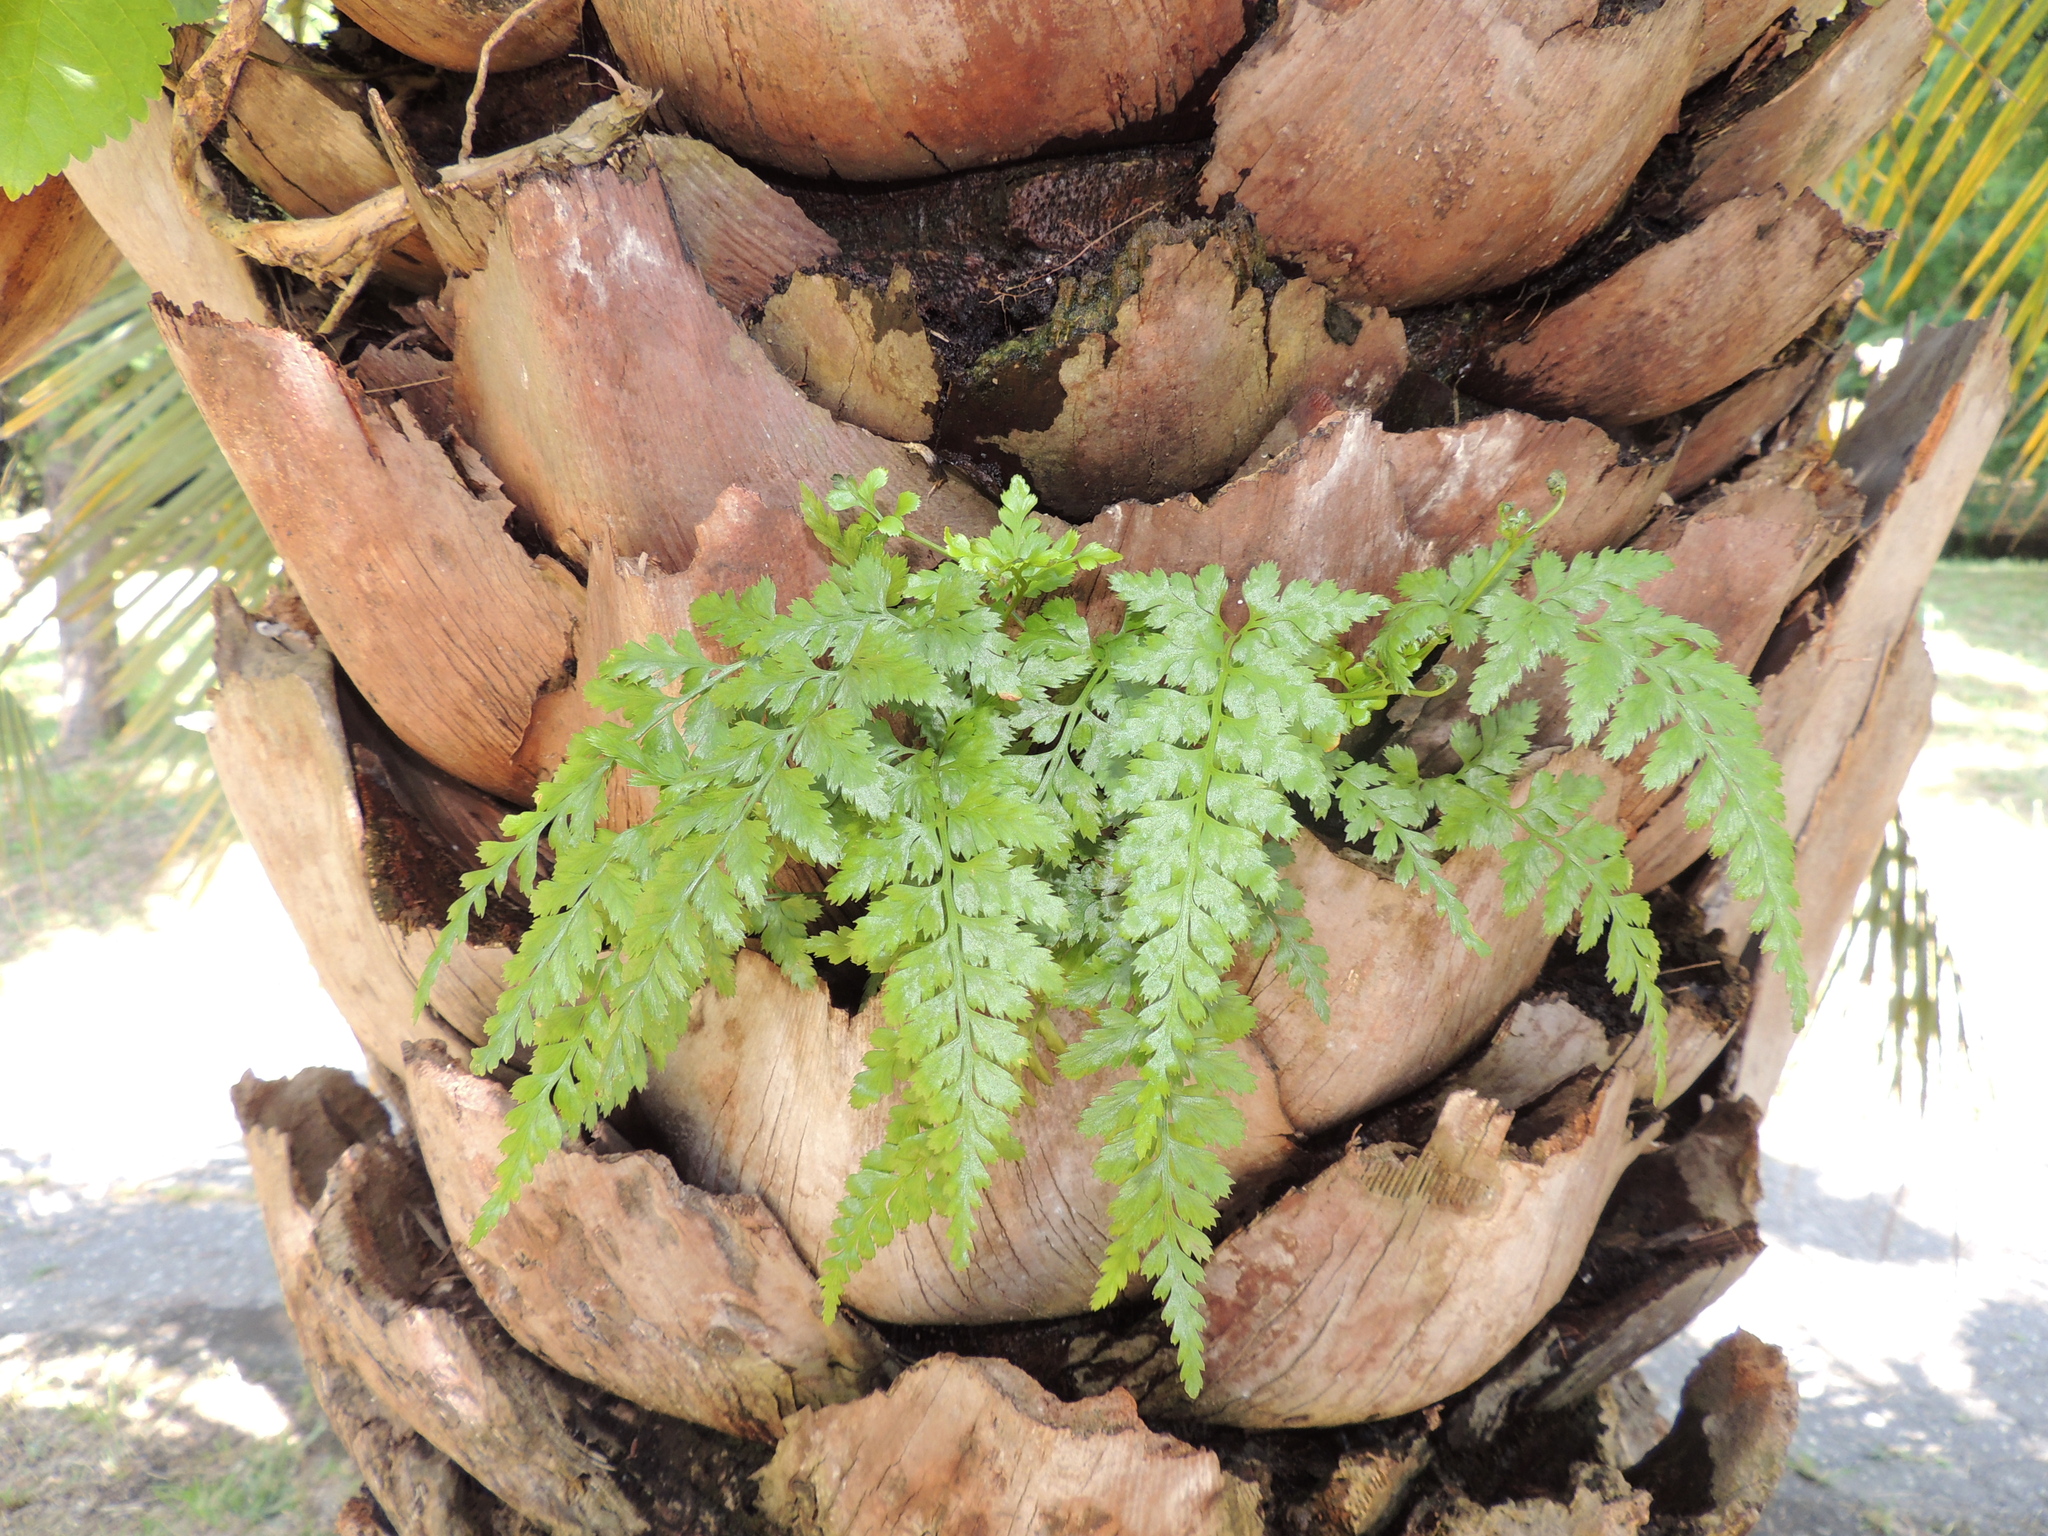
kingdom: Plantae
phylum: Tracheophyta
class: Polypodiopsida
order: Polypodiales
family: Aspleniaceae
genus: Asplenium
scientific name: Asplenium adiantum-nigrum
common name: Black spleenwort
